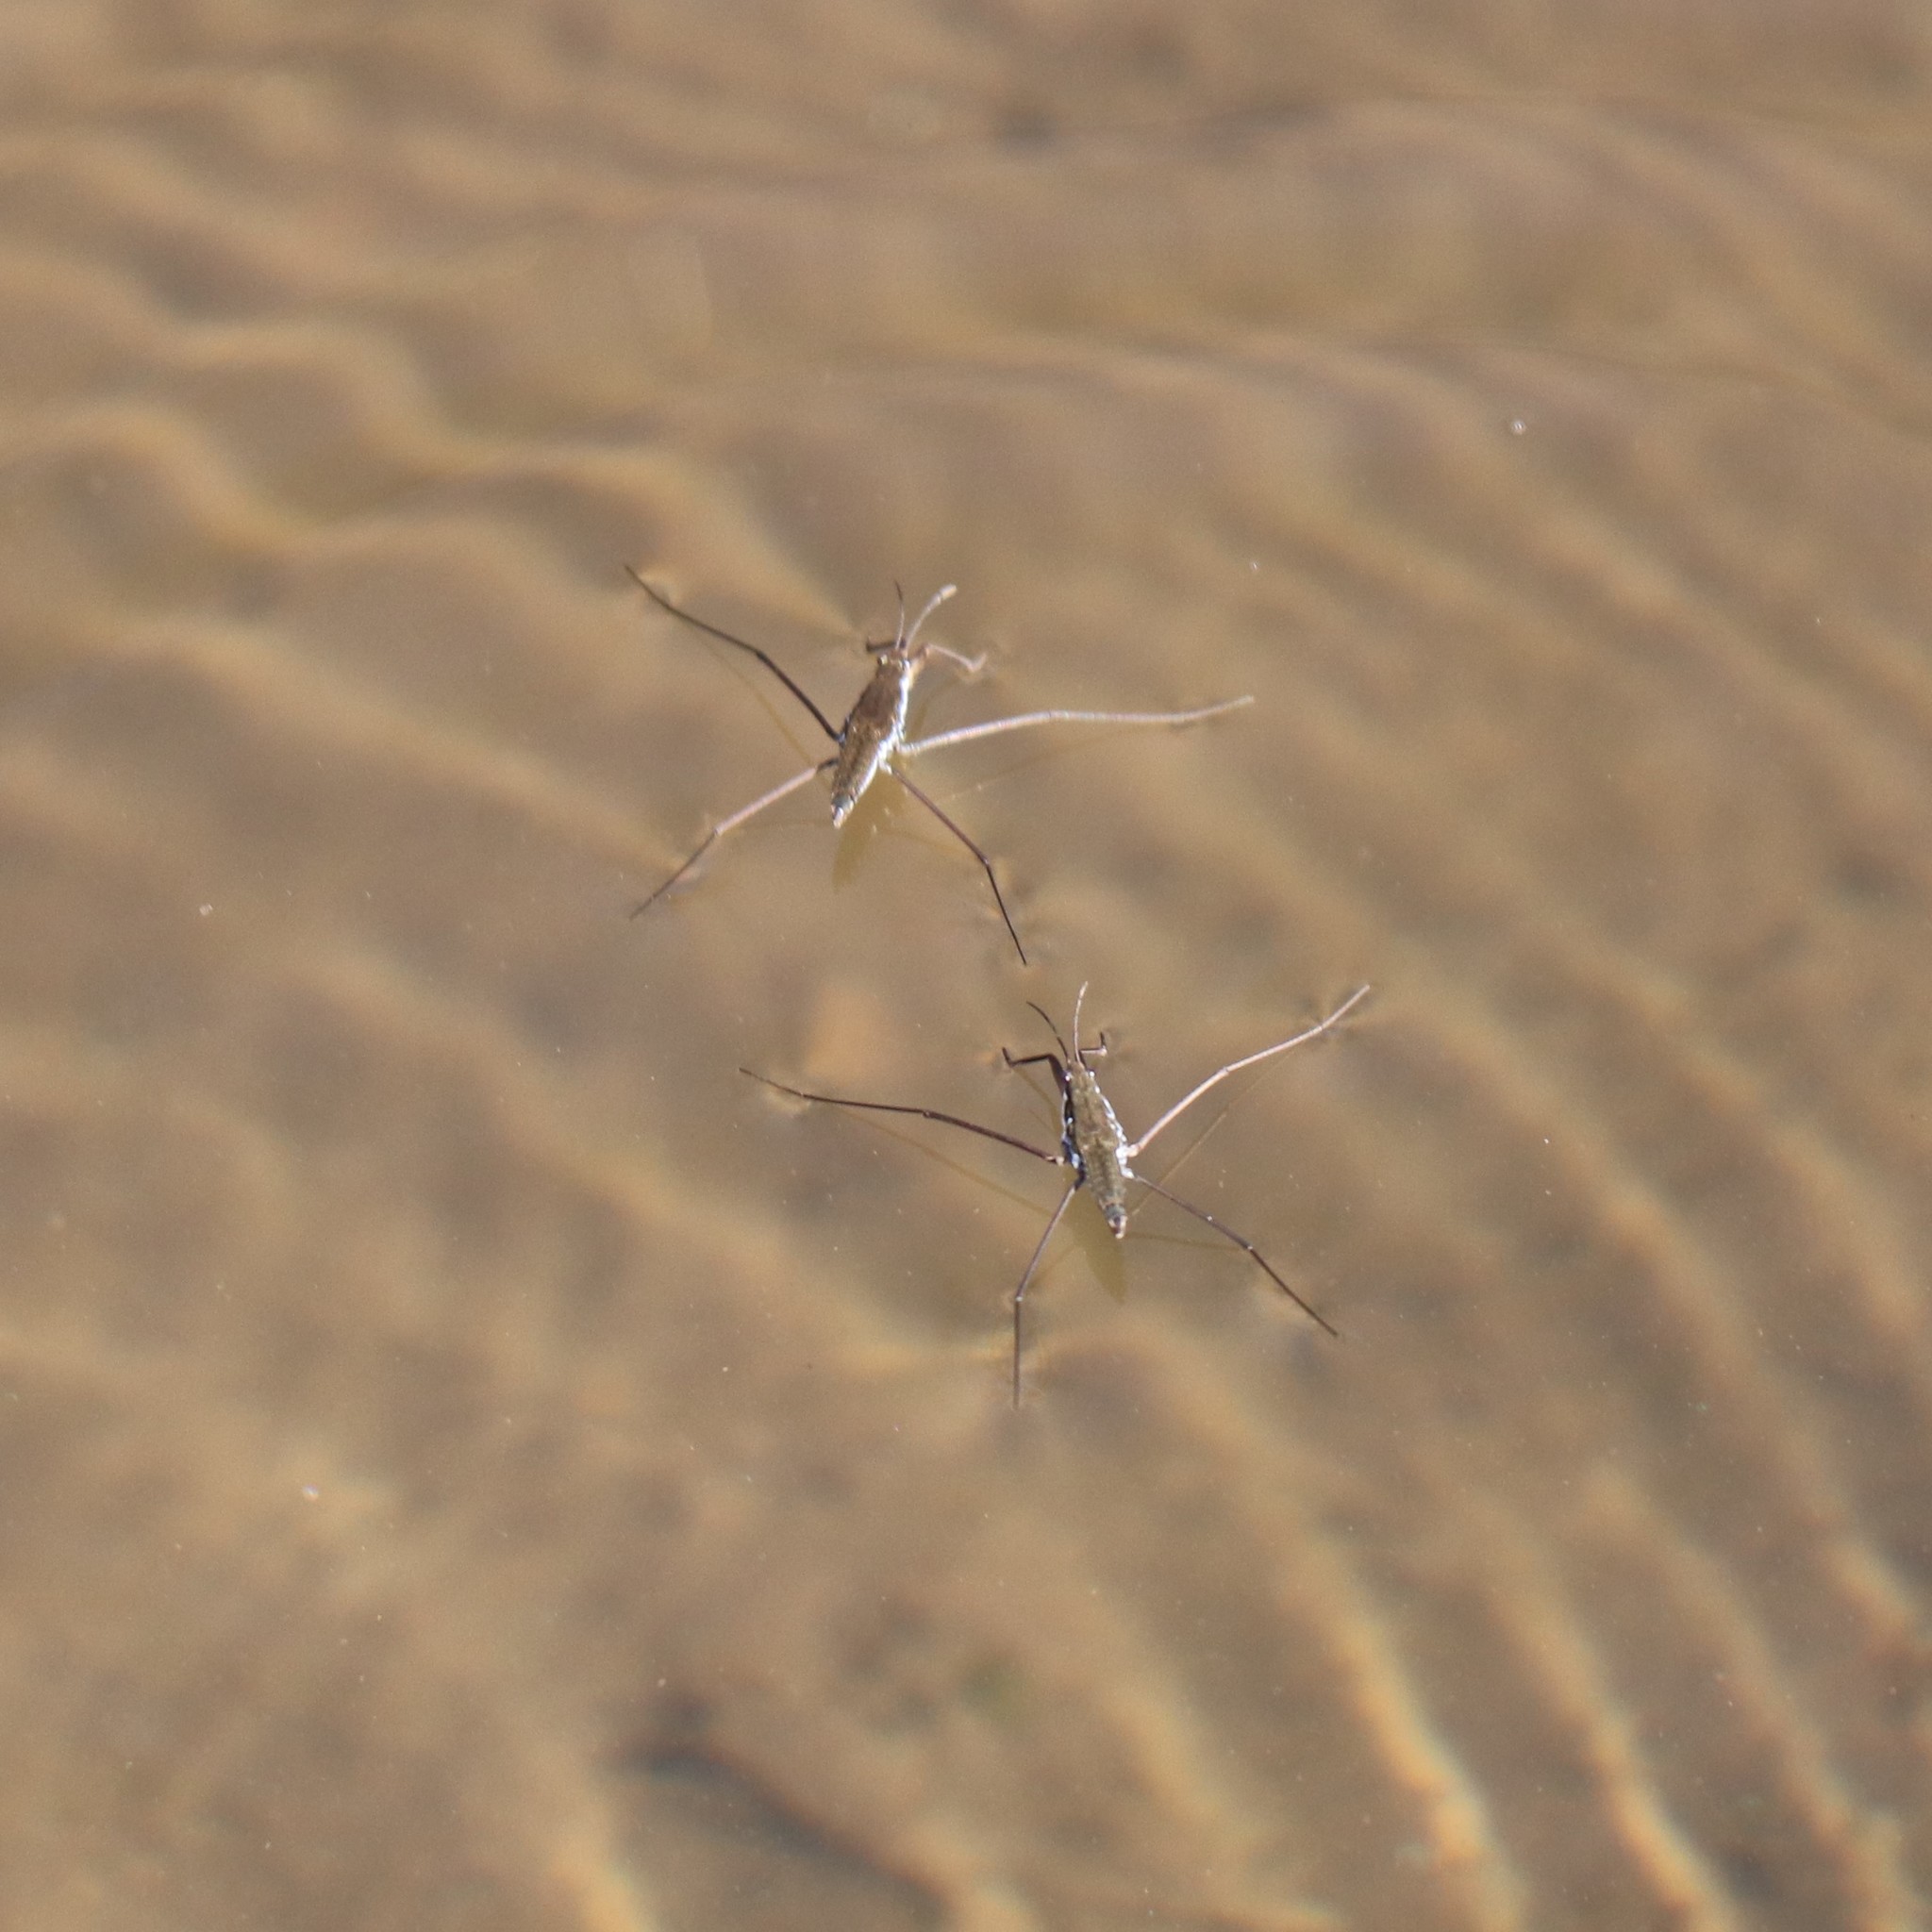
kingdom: Animalia
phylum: Arthropoda
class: Insecta
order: Hemiptera
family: Gerridae
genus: Aquarius
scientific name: Aquarius remigis
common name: Common water strider
